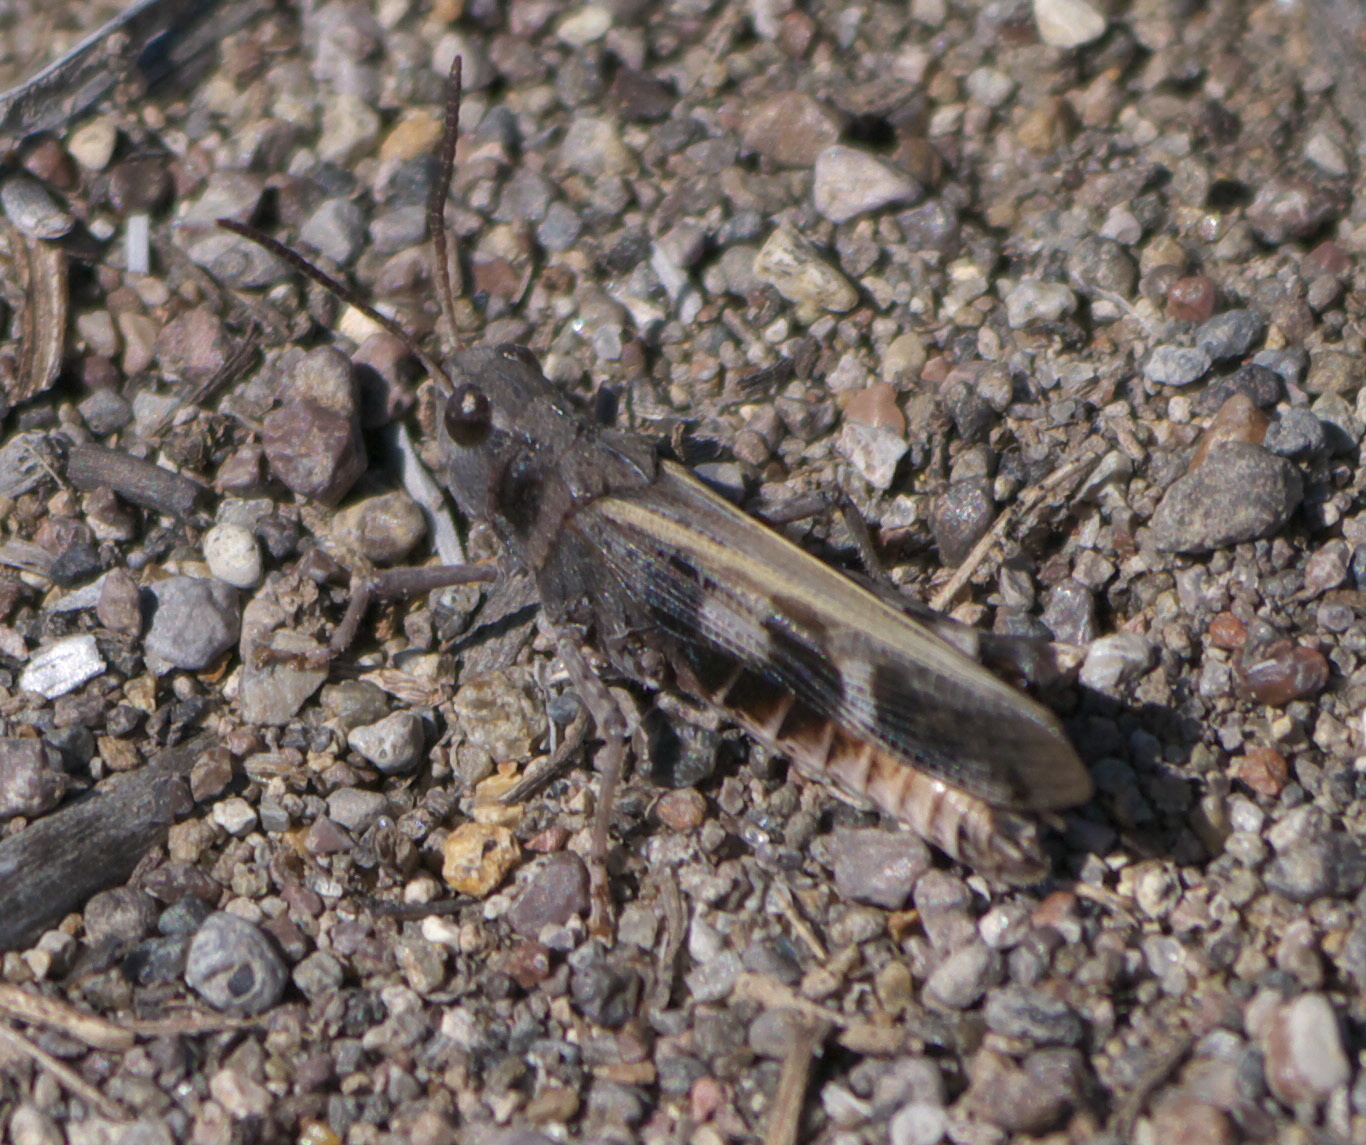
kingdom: Animalia
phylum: Arthropoda
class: Insecta
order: Orthoptera
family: Acrididae
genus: Encoptolophus
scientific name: Encoptolophus costalis
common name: Dusky grasshopper
